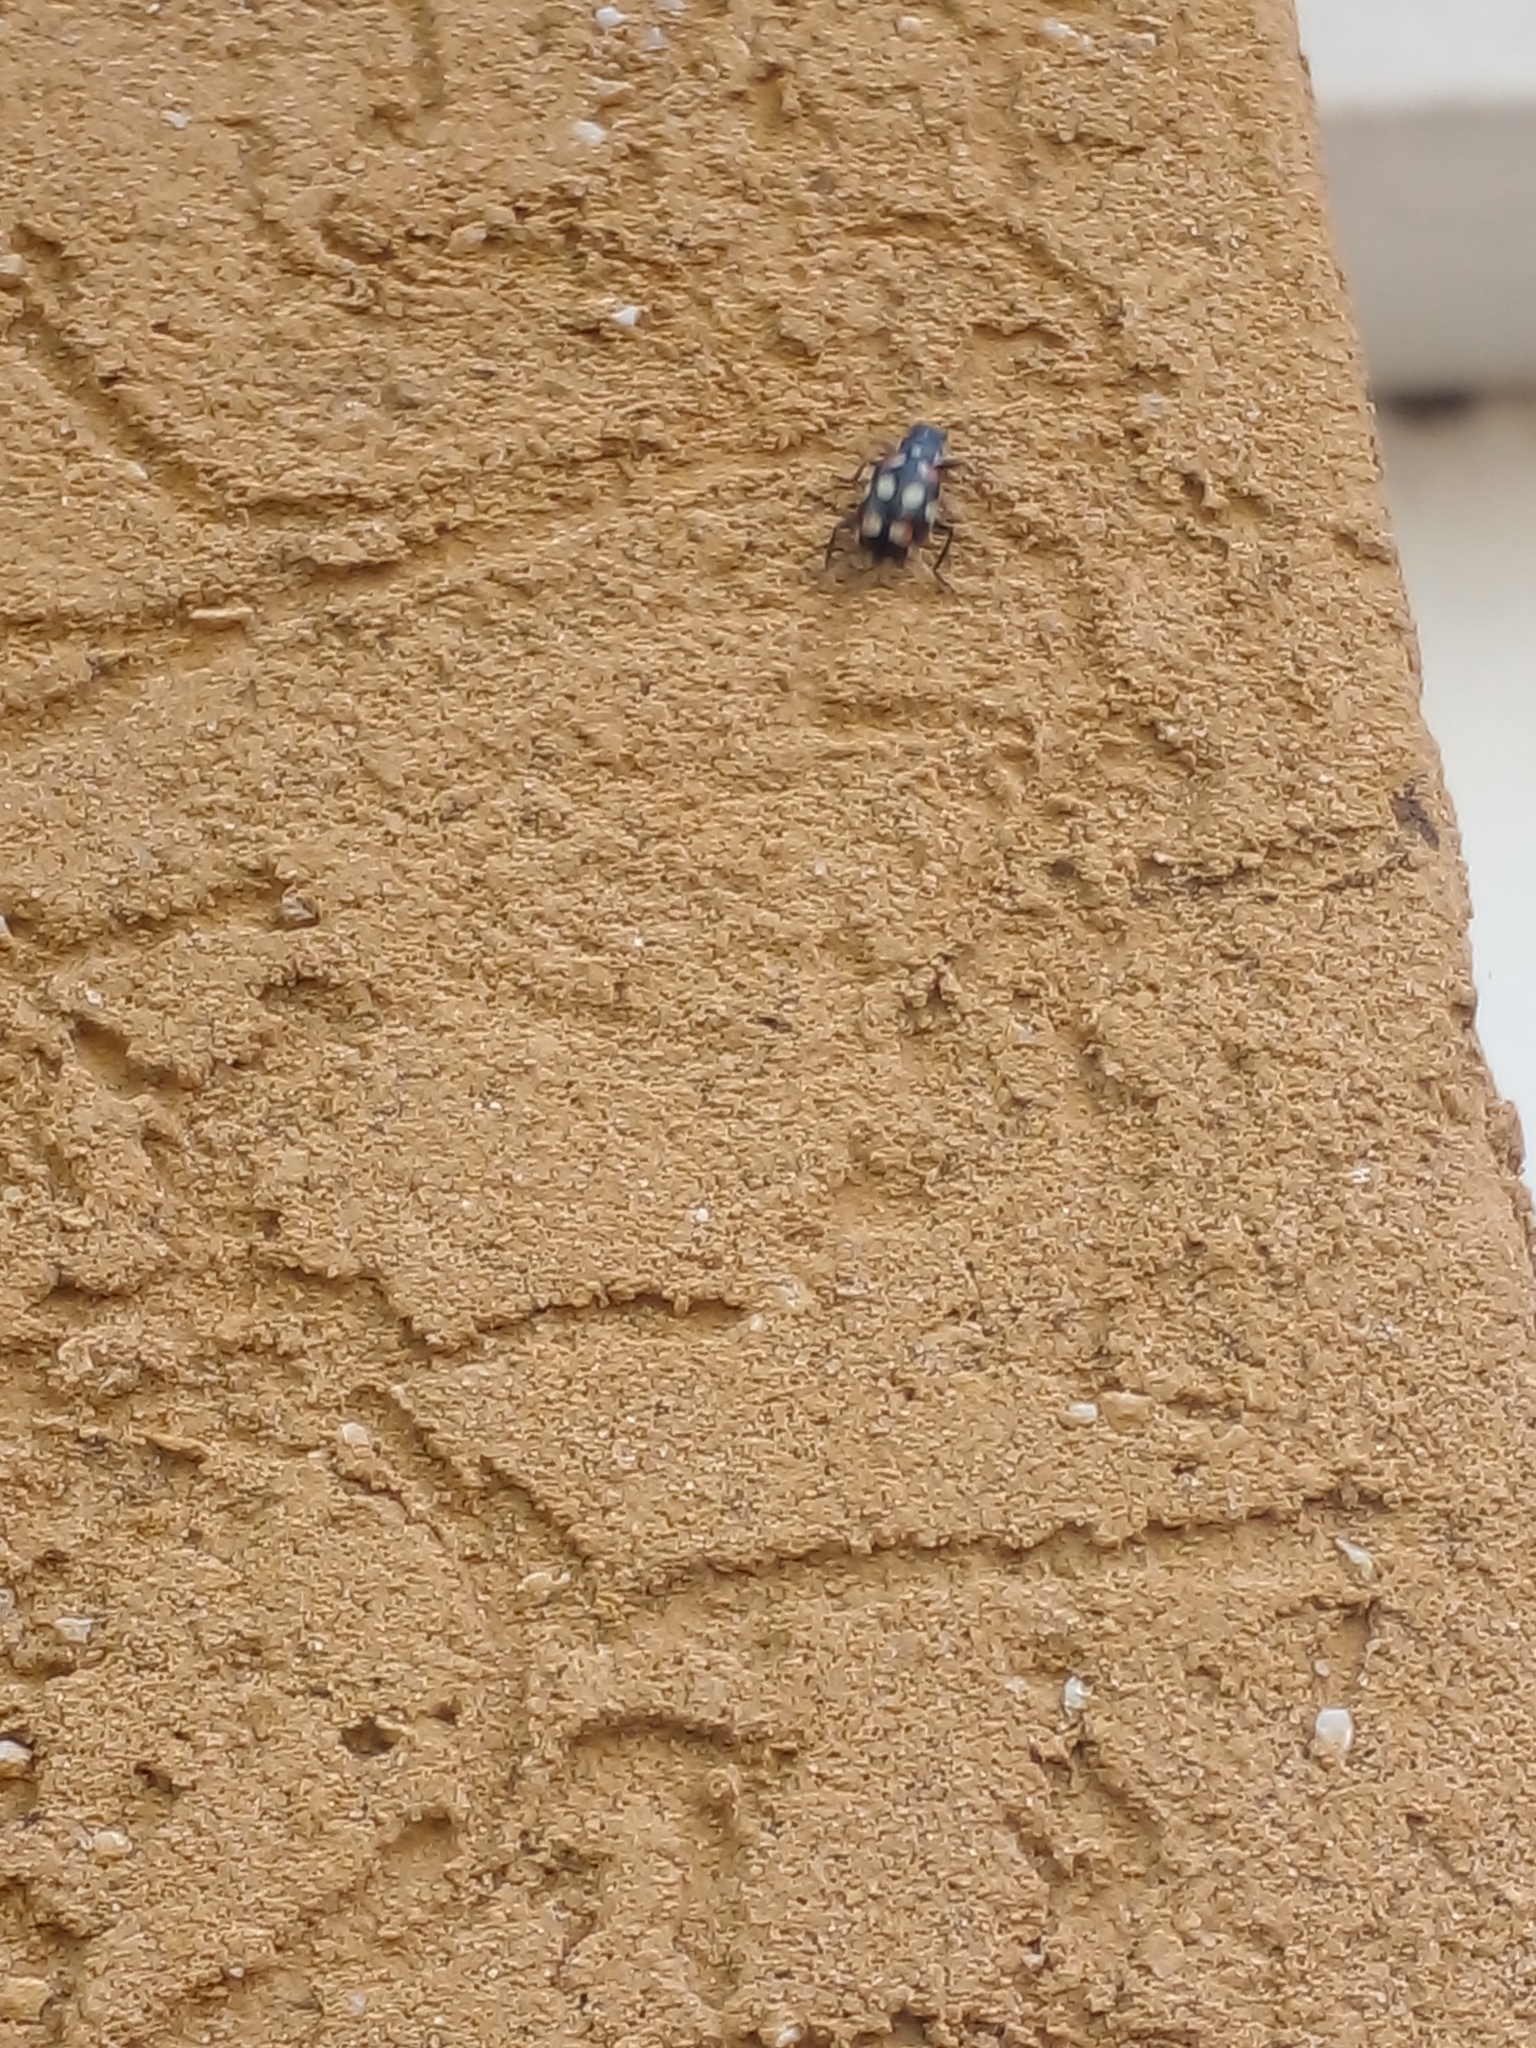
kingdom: Animalia
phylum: Arthropoda
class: Insecta
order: Coleoptera
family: Coccinellidae
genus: Eriopis
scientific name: Eriopis connexa
